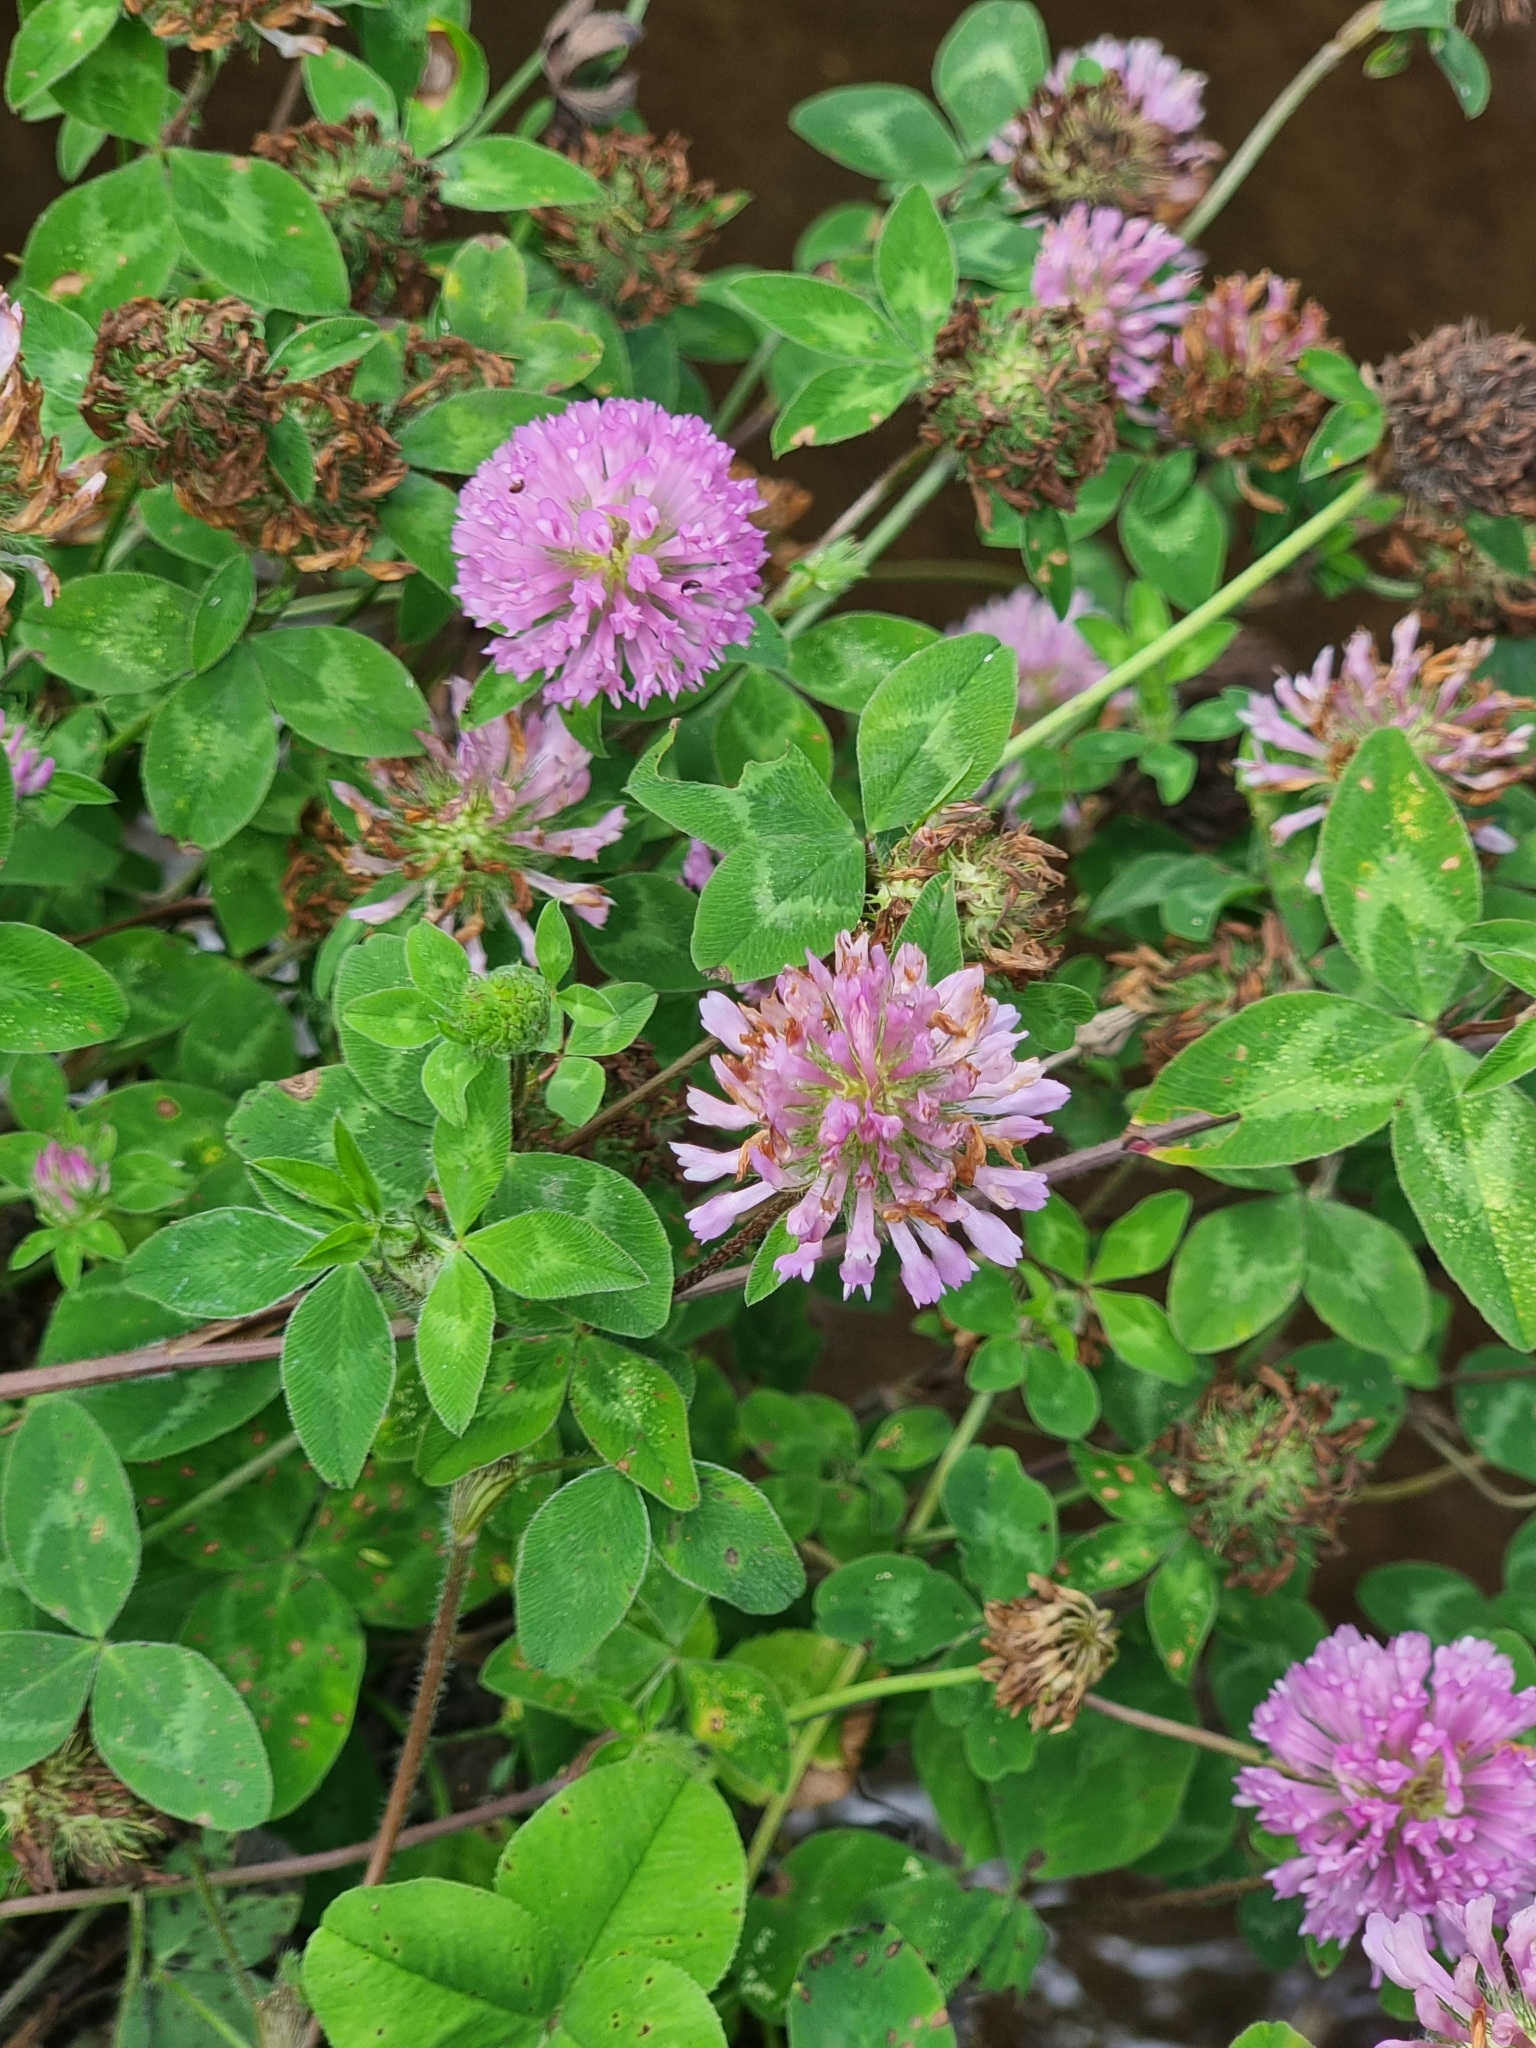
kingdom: Plantae
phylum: Tracheophyta
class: Magnoliopsida
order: Fabales
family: Fabaceae
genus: Trifolium
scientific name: Trifolium pratense
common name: Red clover
